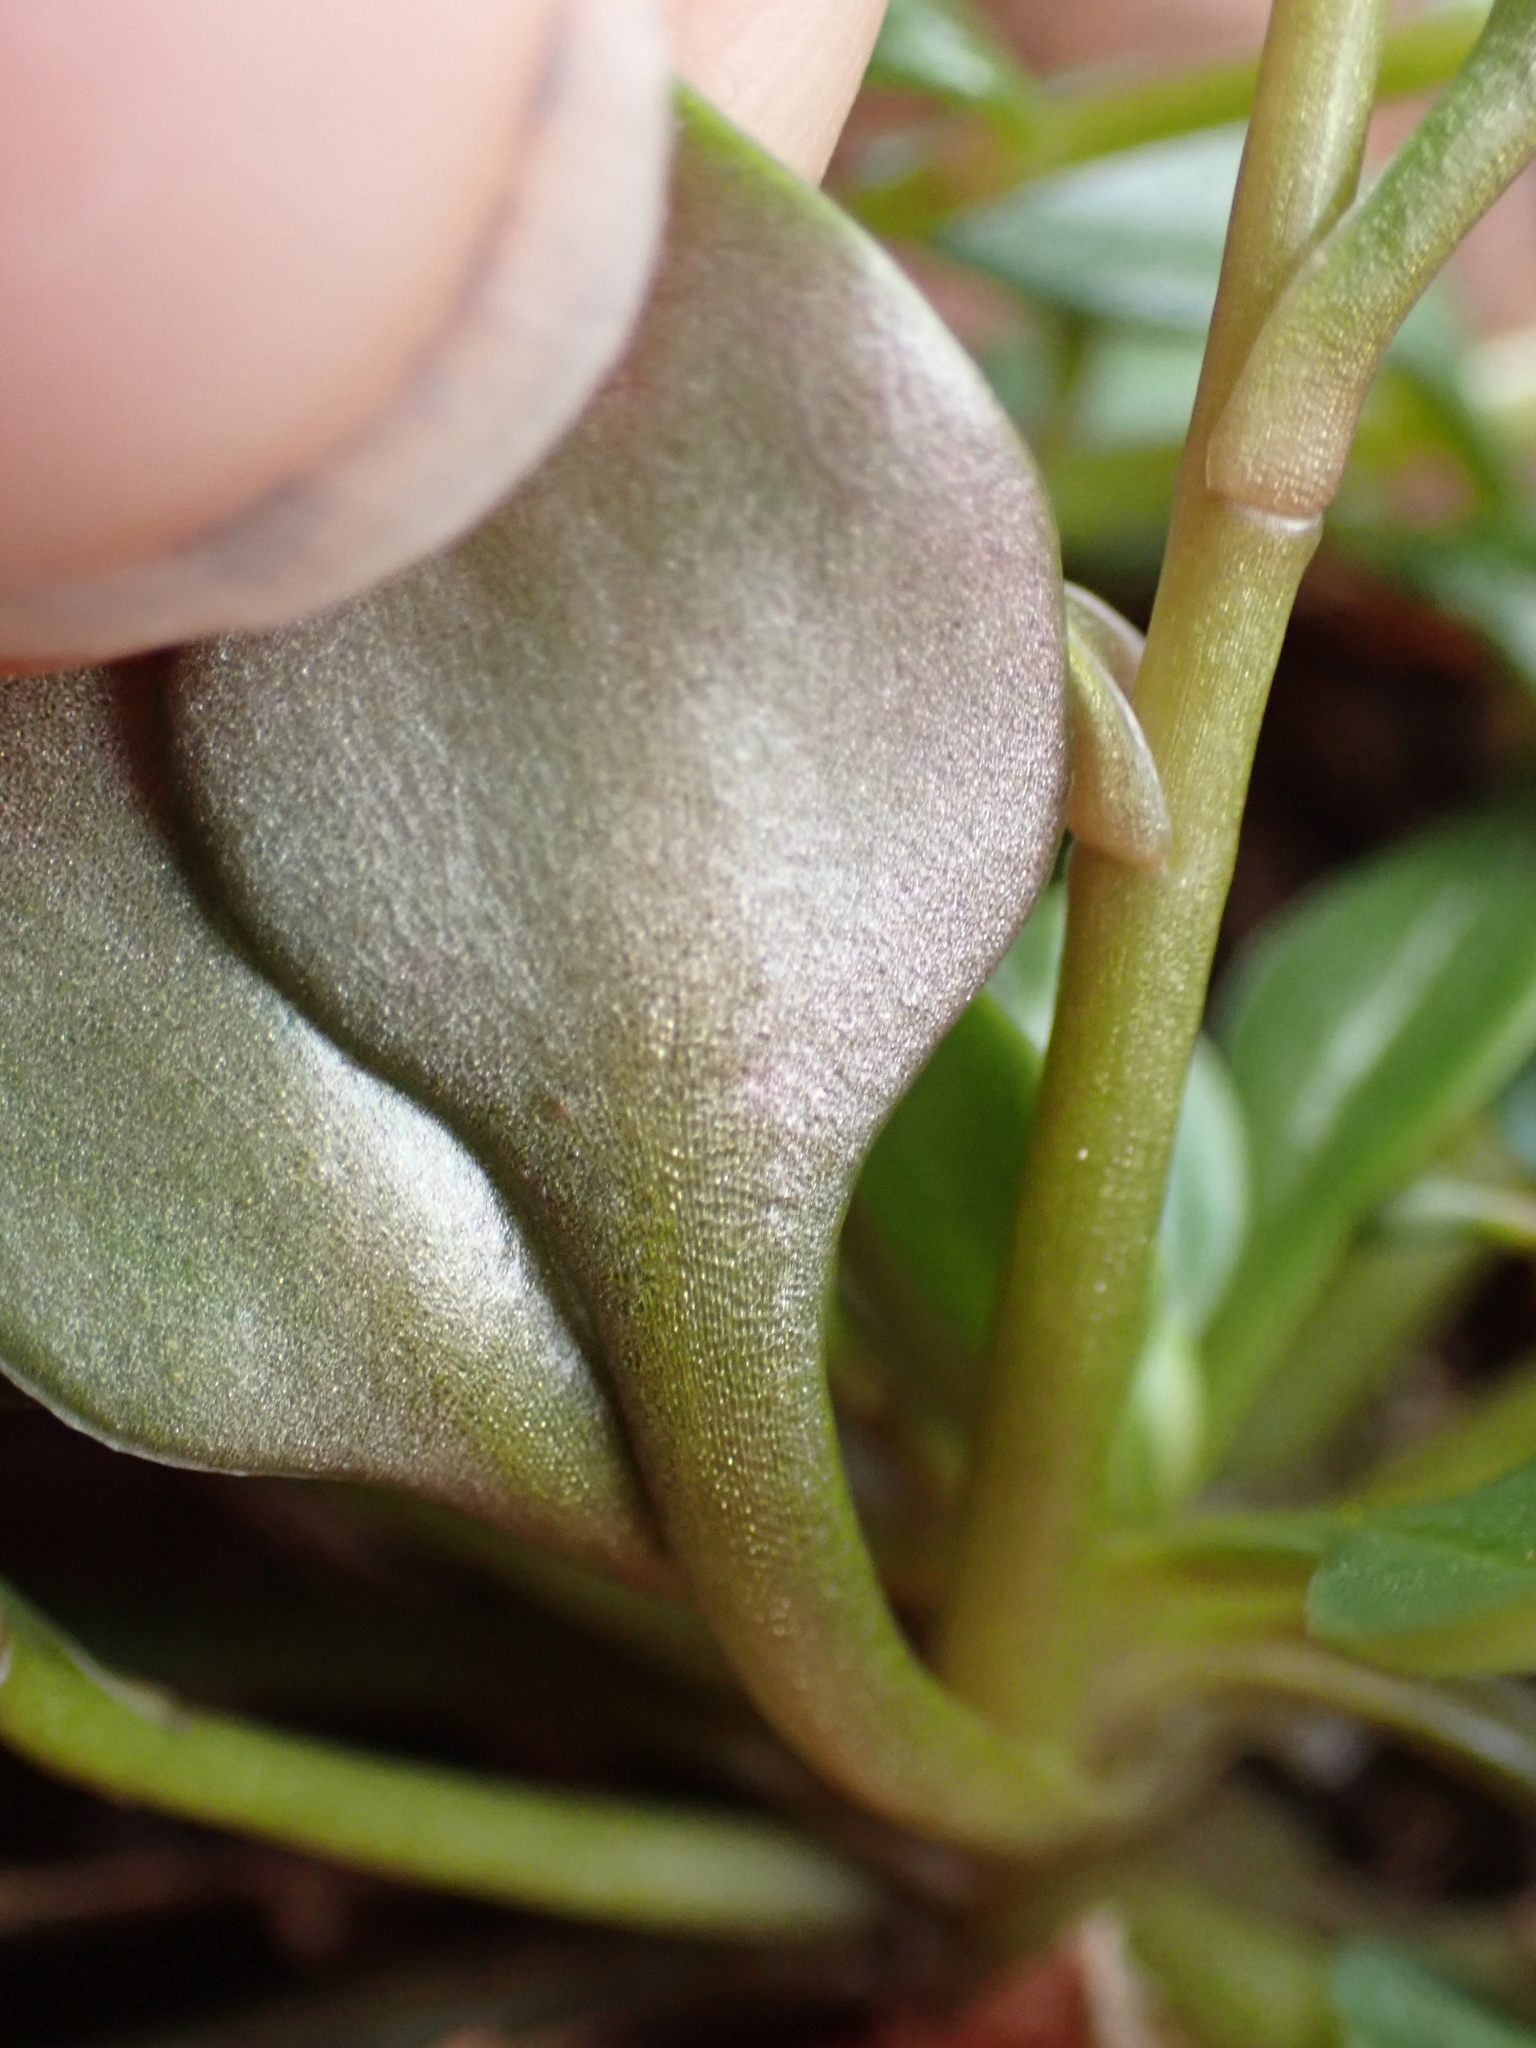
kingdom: Plantae
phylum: Tracheophyta
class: Magnoliopsida
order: Caryophyllales
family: Montiaceae
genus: Montia
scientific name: Montia parvifolia
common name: Small-leaved blinks
